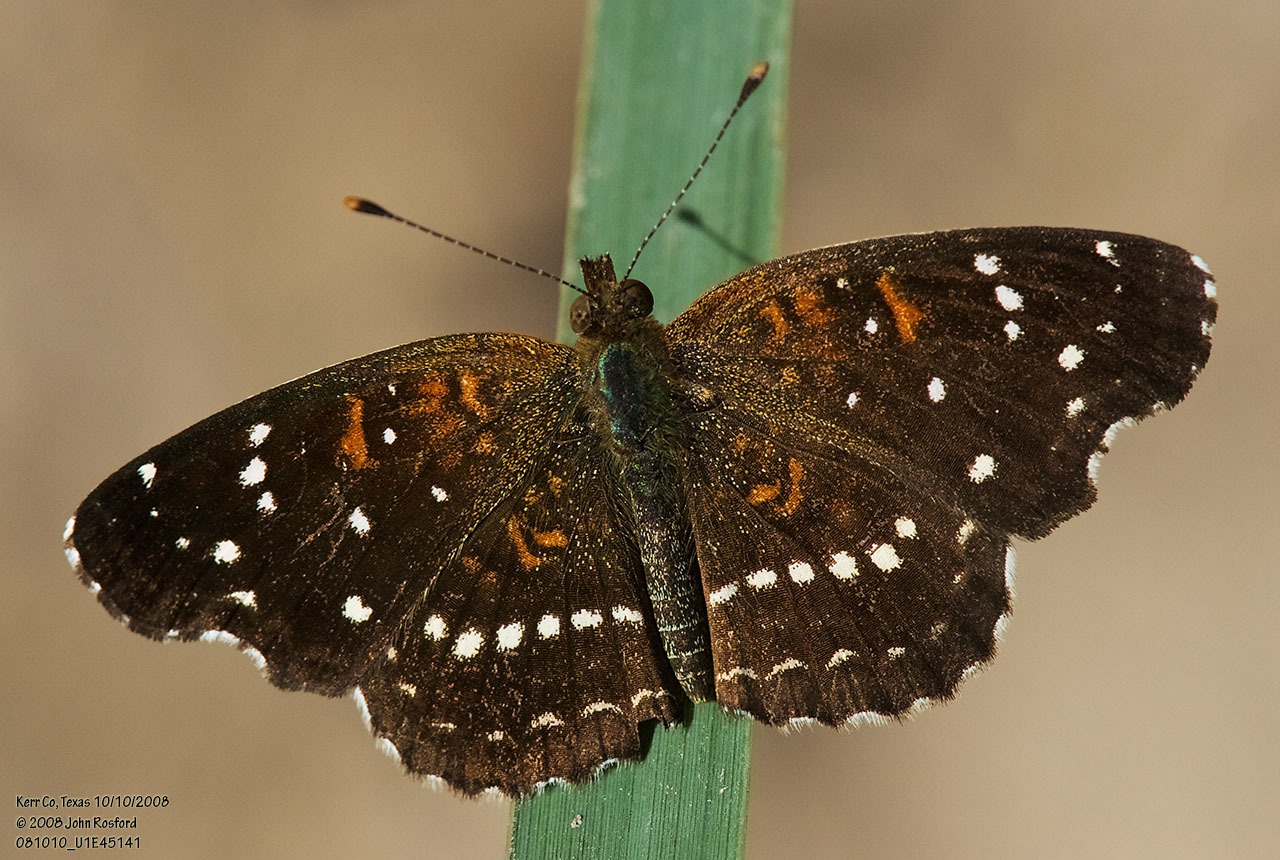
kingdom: Animalia
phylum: Arthropoda
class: Insecta
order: Lepidoptera
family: Nymphalidae
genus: Anthanassa
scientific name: Anthanassa texana
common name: Texan crescent
